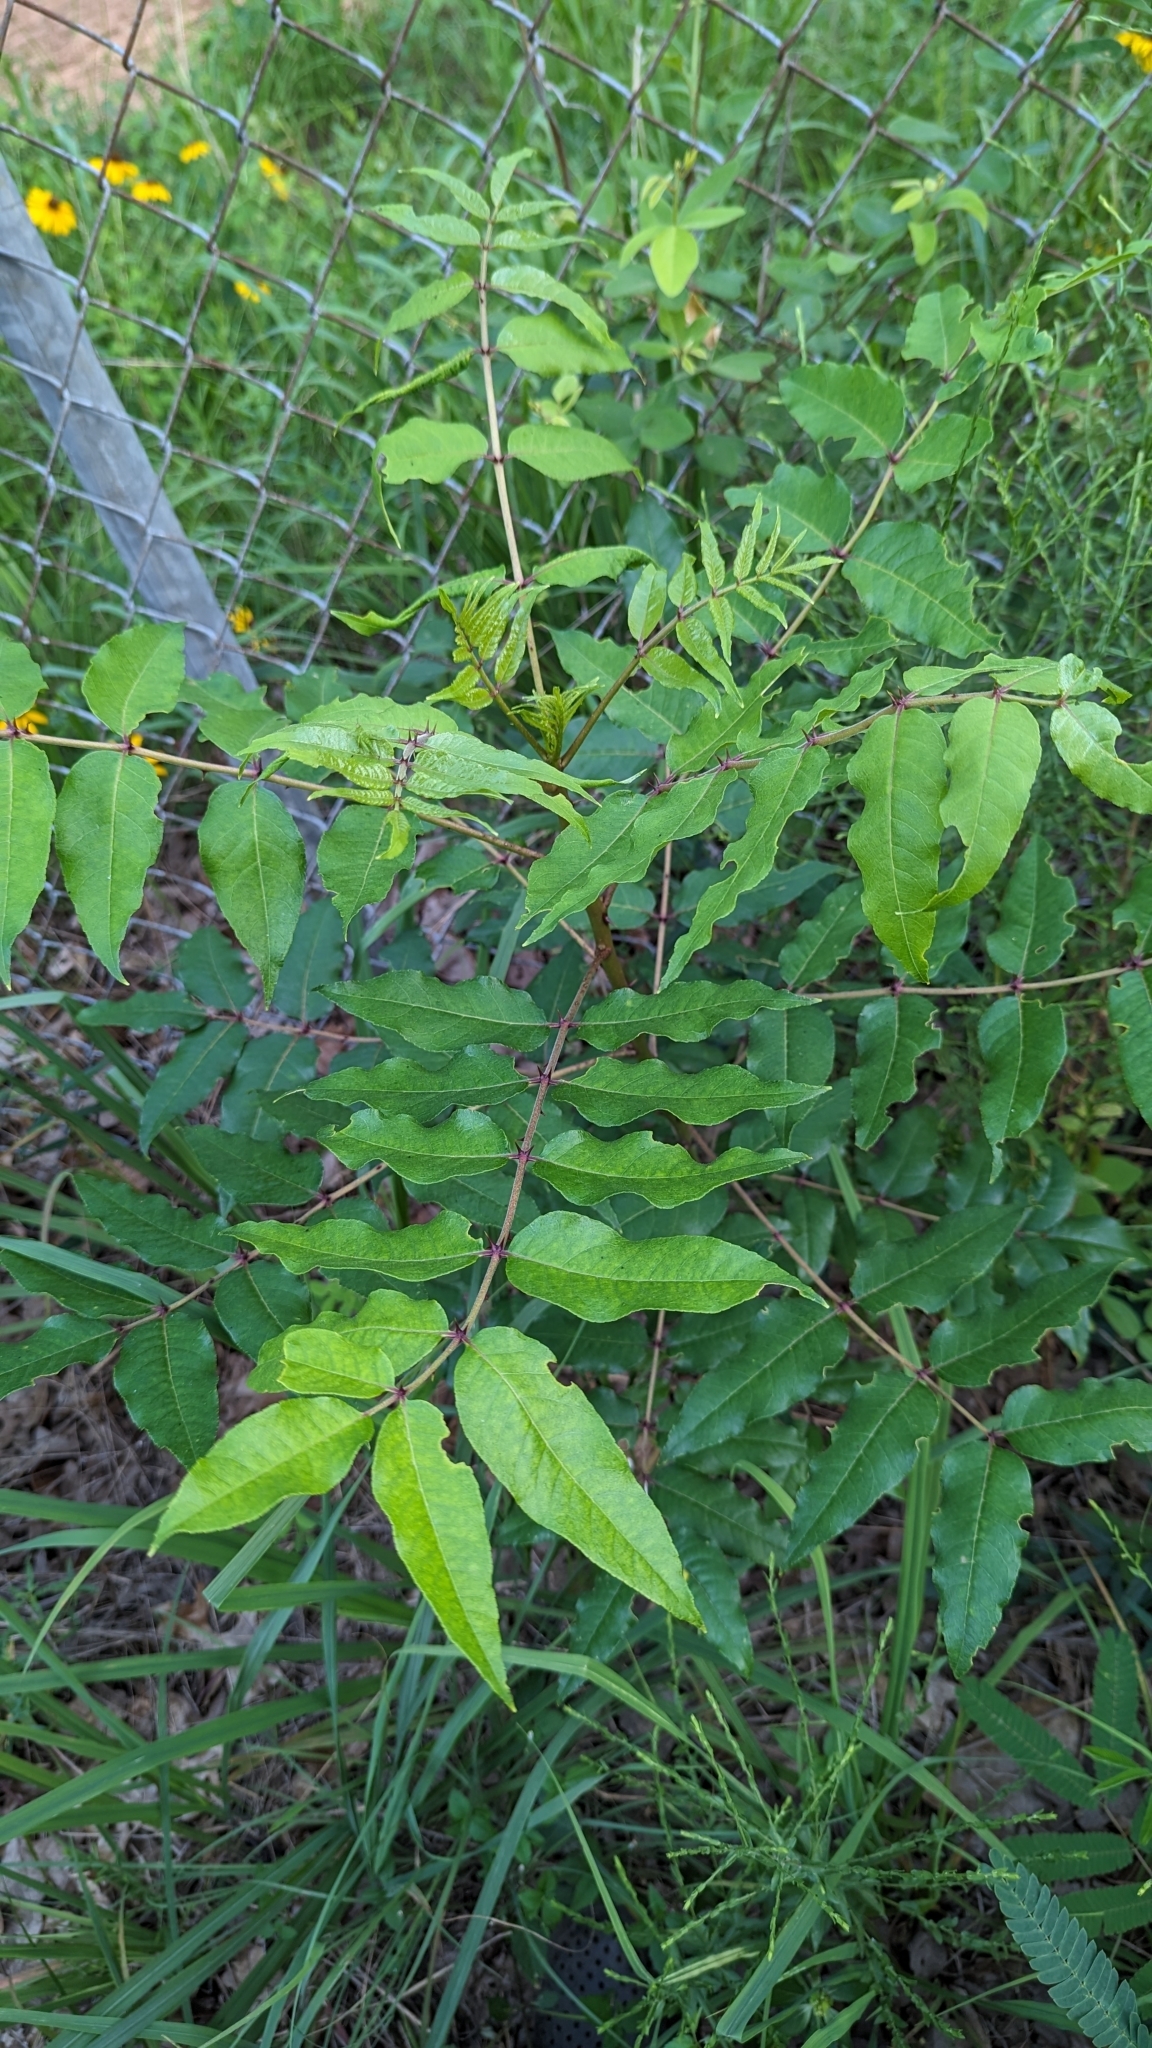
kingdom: Plantae
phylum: Tracheophyta
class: Magnoliopsida
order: Sapindales
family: Rutaceae
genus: Zanthoxylum
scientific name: Zanthoxylum clava-herculis
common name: Hercules'-club
